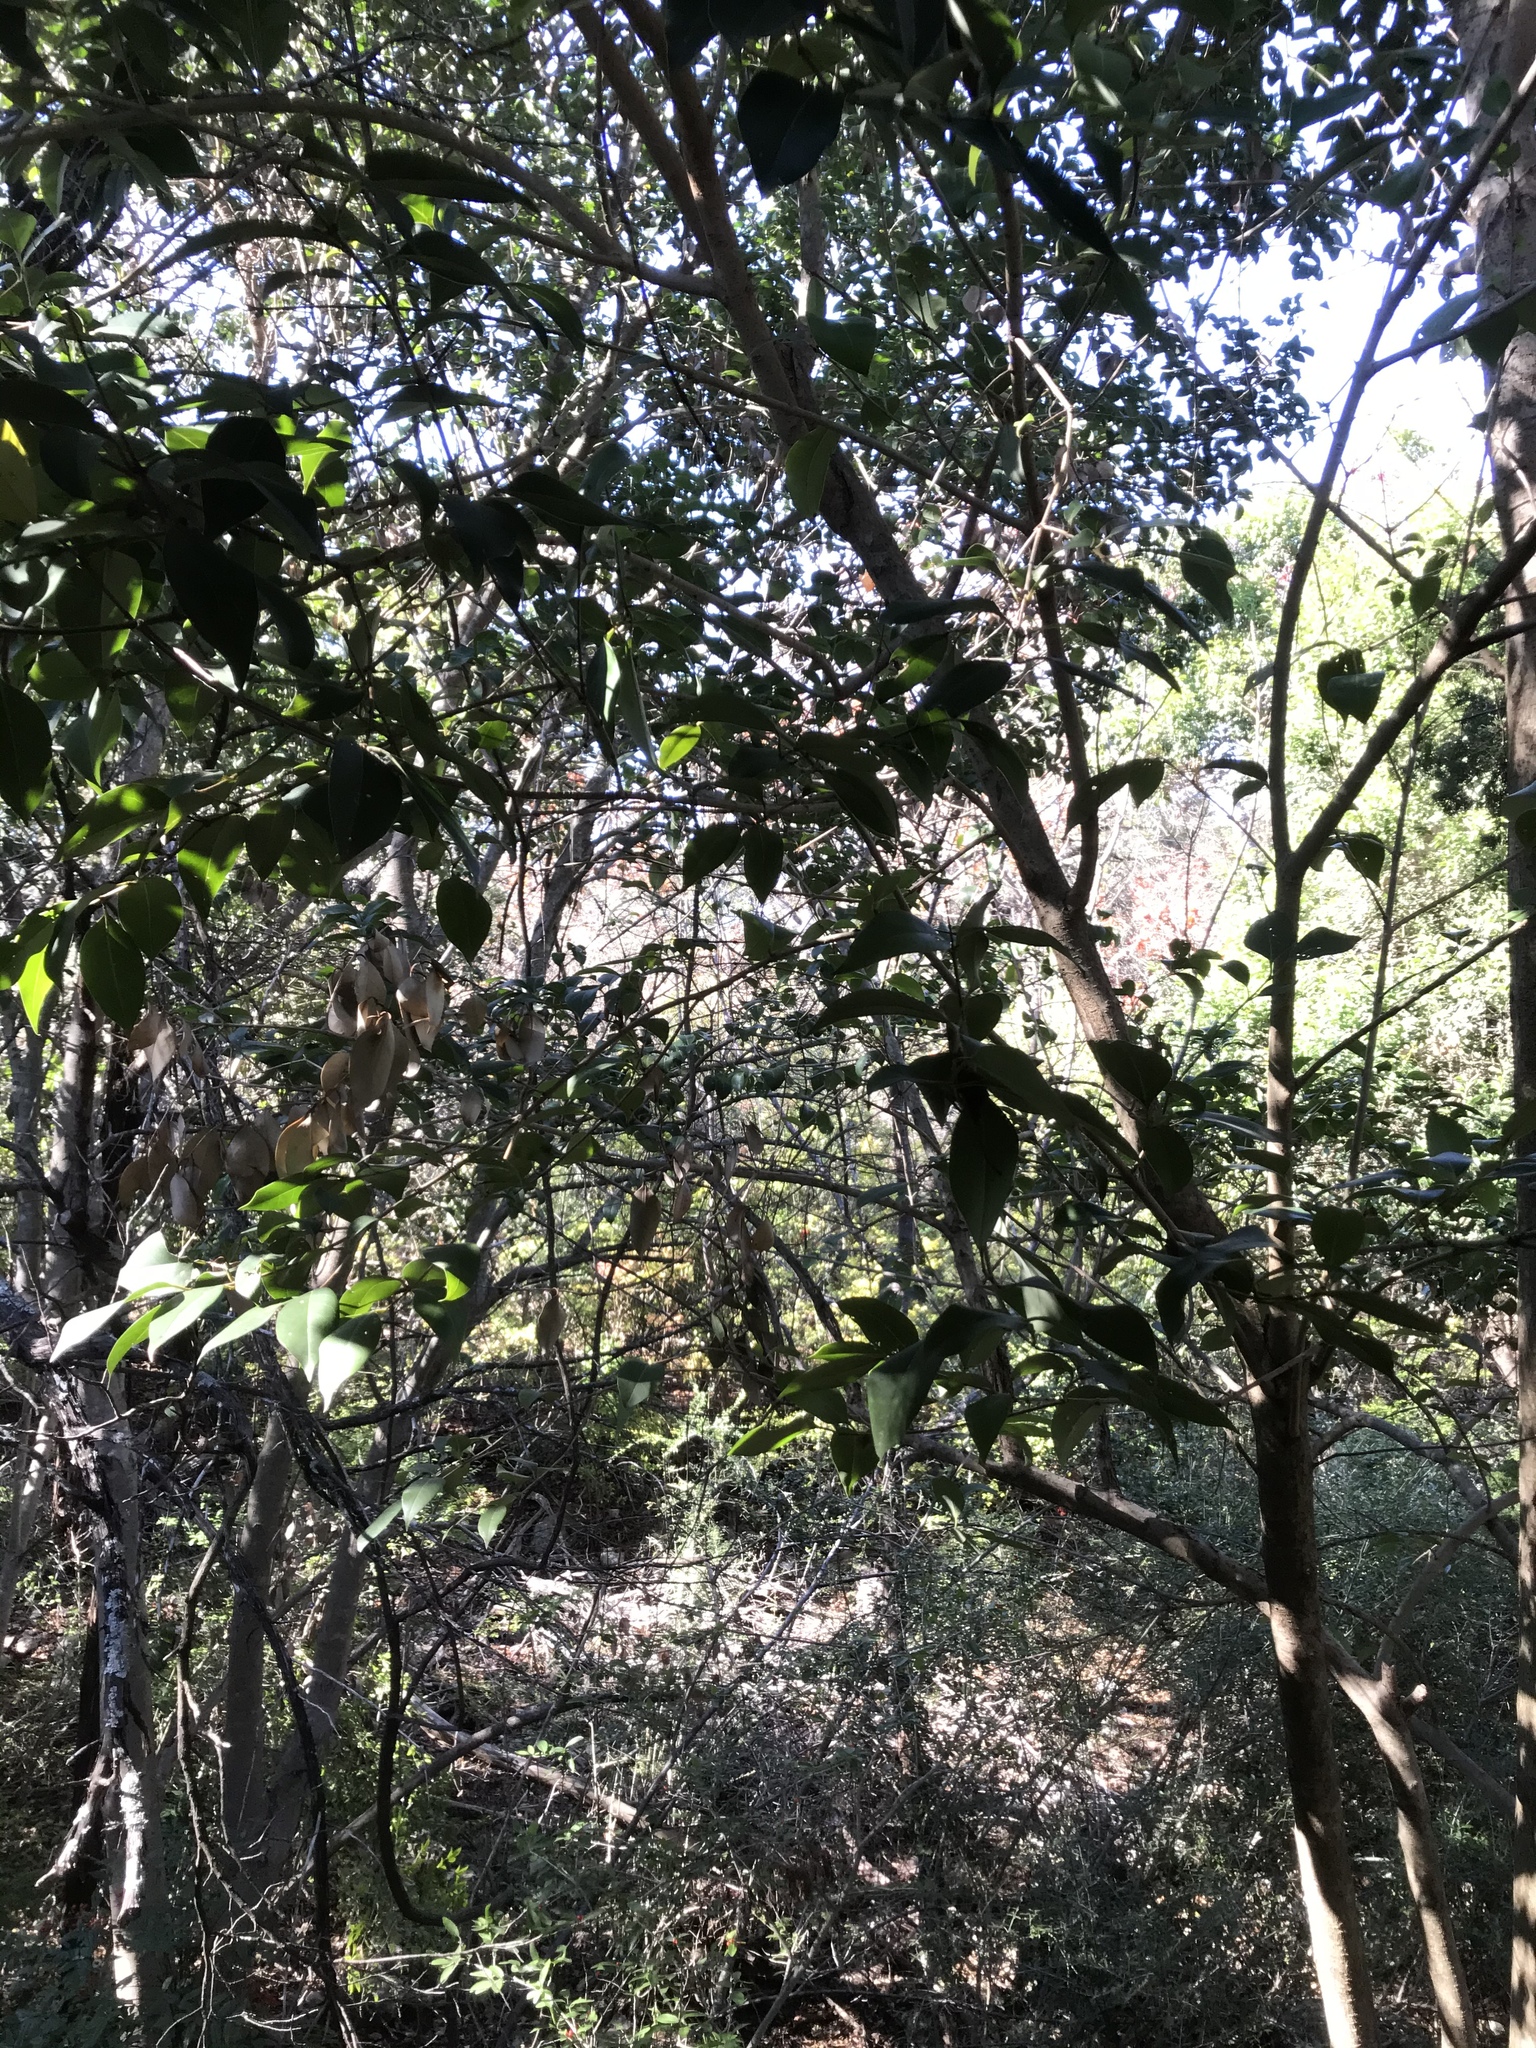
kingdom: Plantae
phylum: Tracheophyta
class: Magnoliopsida
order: Lamiales
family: Oleaceae
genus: Ligustrum
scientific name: Ligustrum lucidum
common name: Glossy privet
